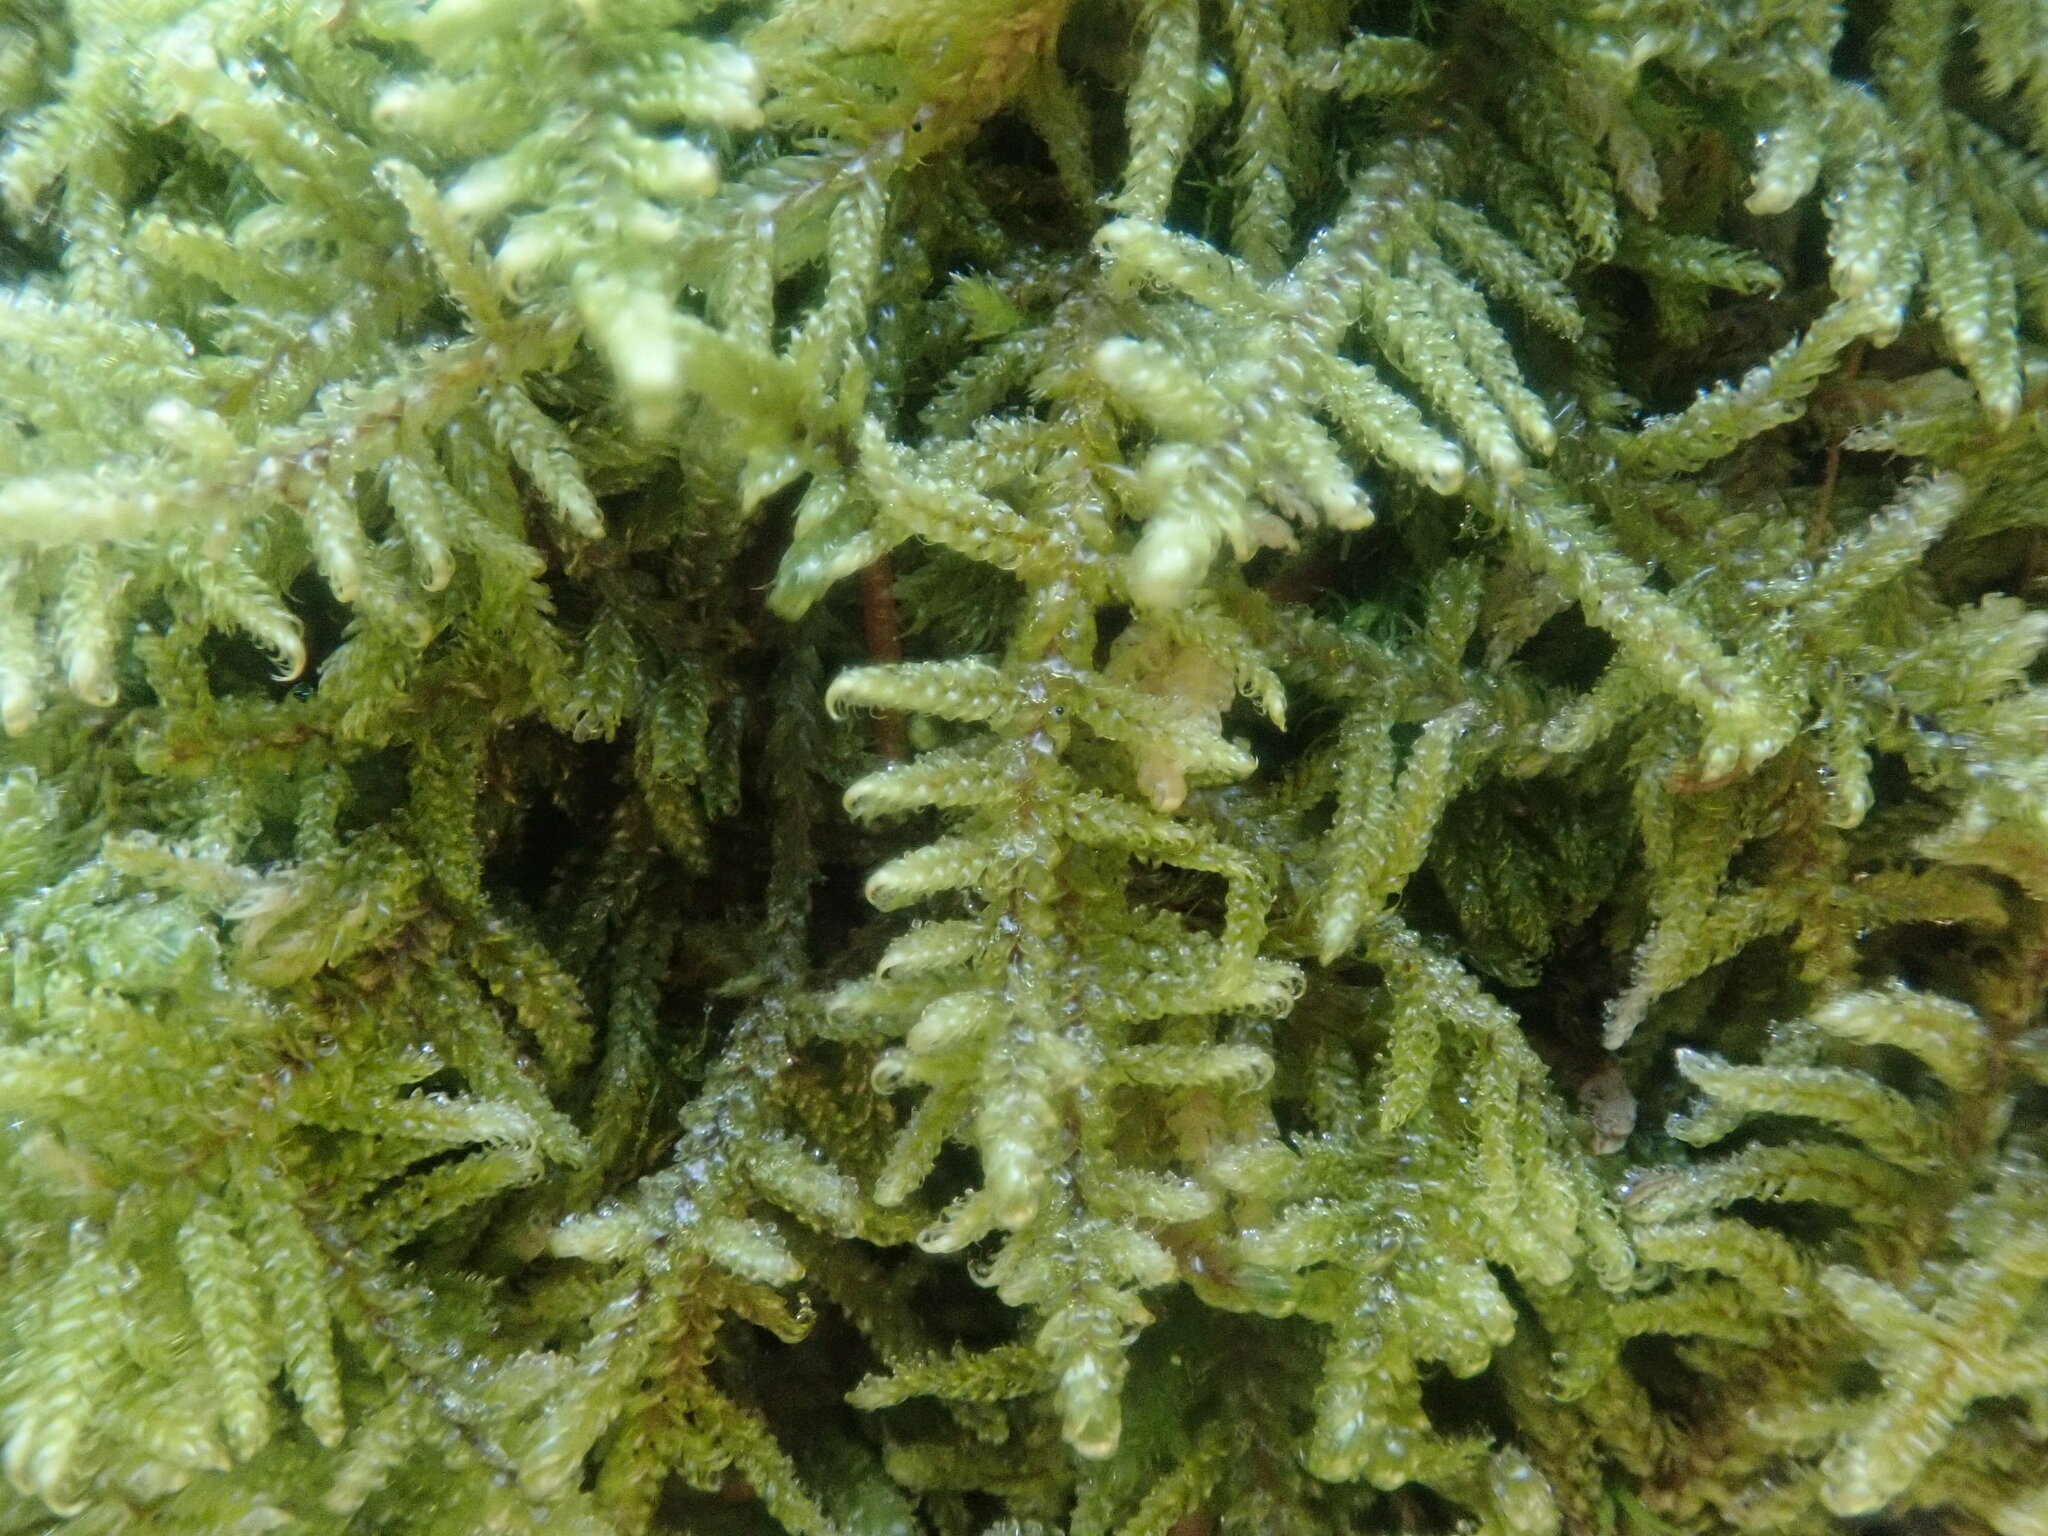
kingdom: Plantae
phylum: Bryophyta
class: Bryopsida
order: Hypnales
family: Callicladiaceae
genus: Callicladium
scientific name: Callicladium imponens
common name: Brocade moss
